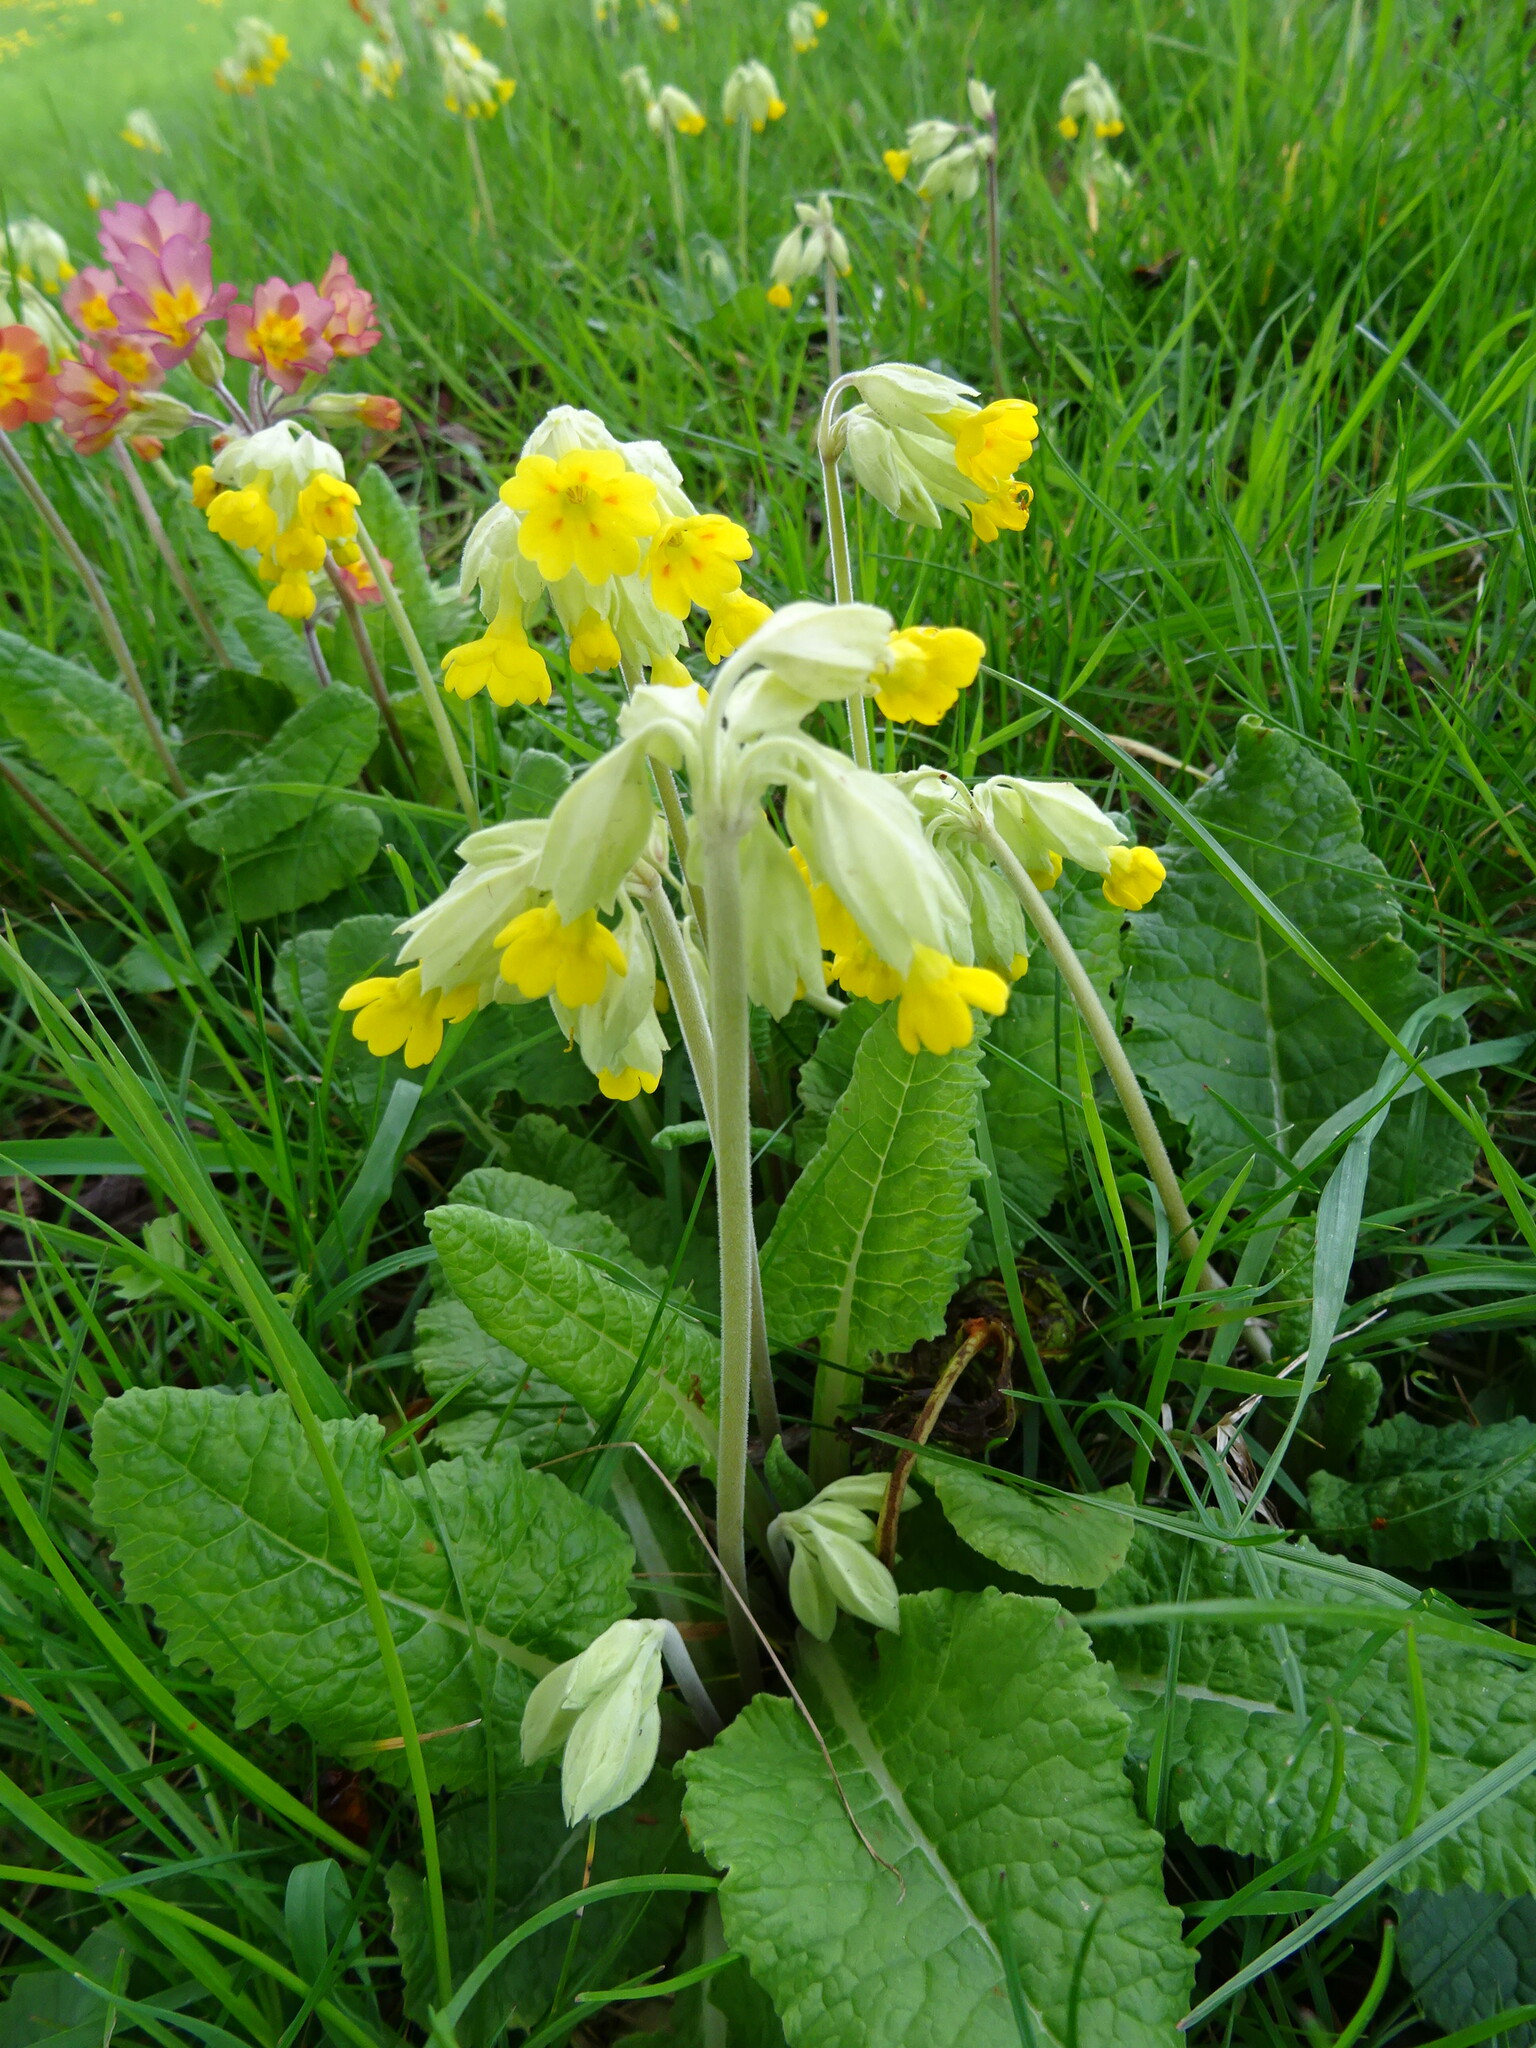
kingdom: Plantae
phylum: Tracheophyta
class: Magnoliopsida
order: Ericales
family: Primulaceae
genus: Primula
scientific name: Primula veris
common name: Cowslip
